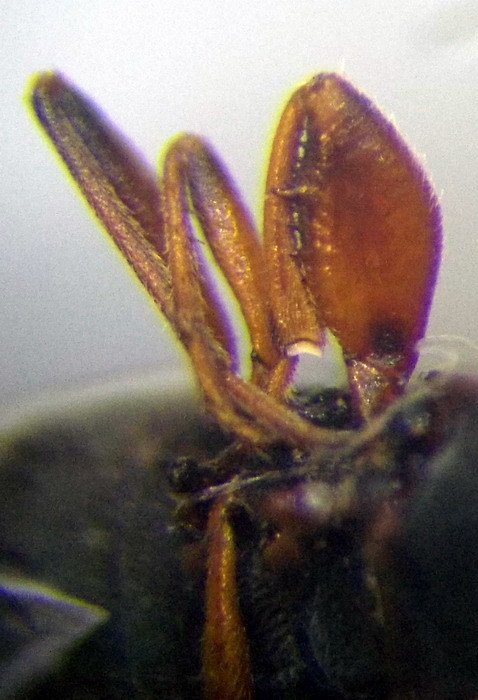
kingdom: Animalia
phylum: Arthropoda
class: Insecta
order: Hemiptera
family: Rhyparochromidae
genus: Icus
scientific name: Icus angularis
